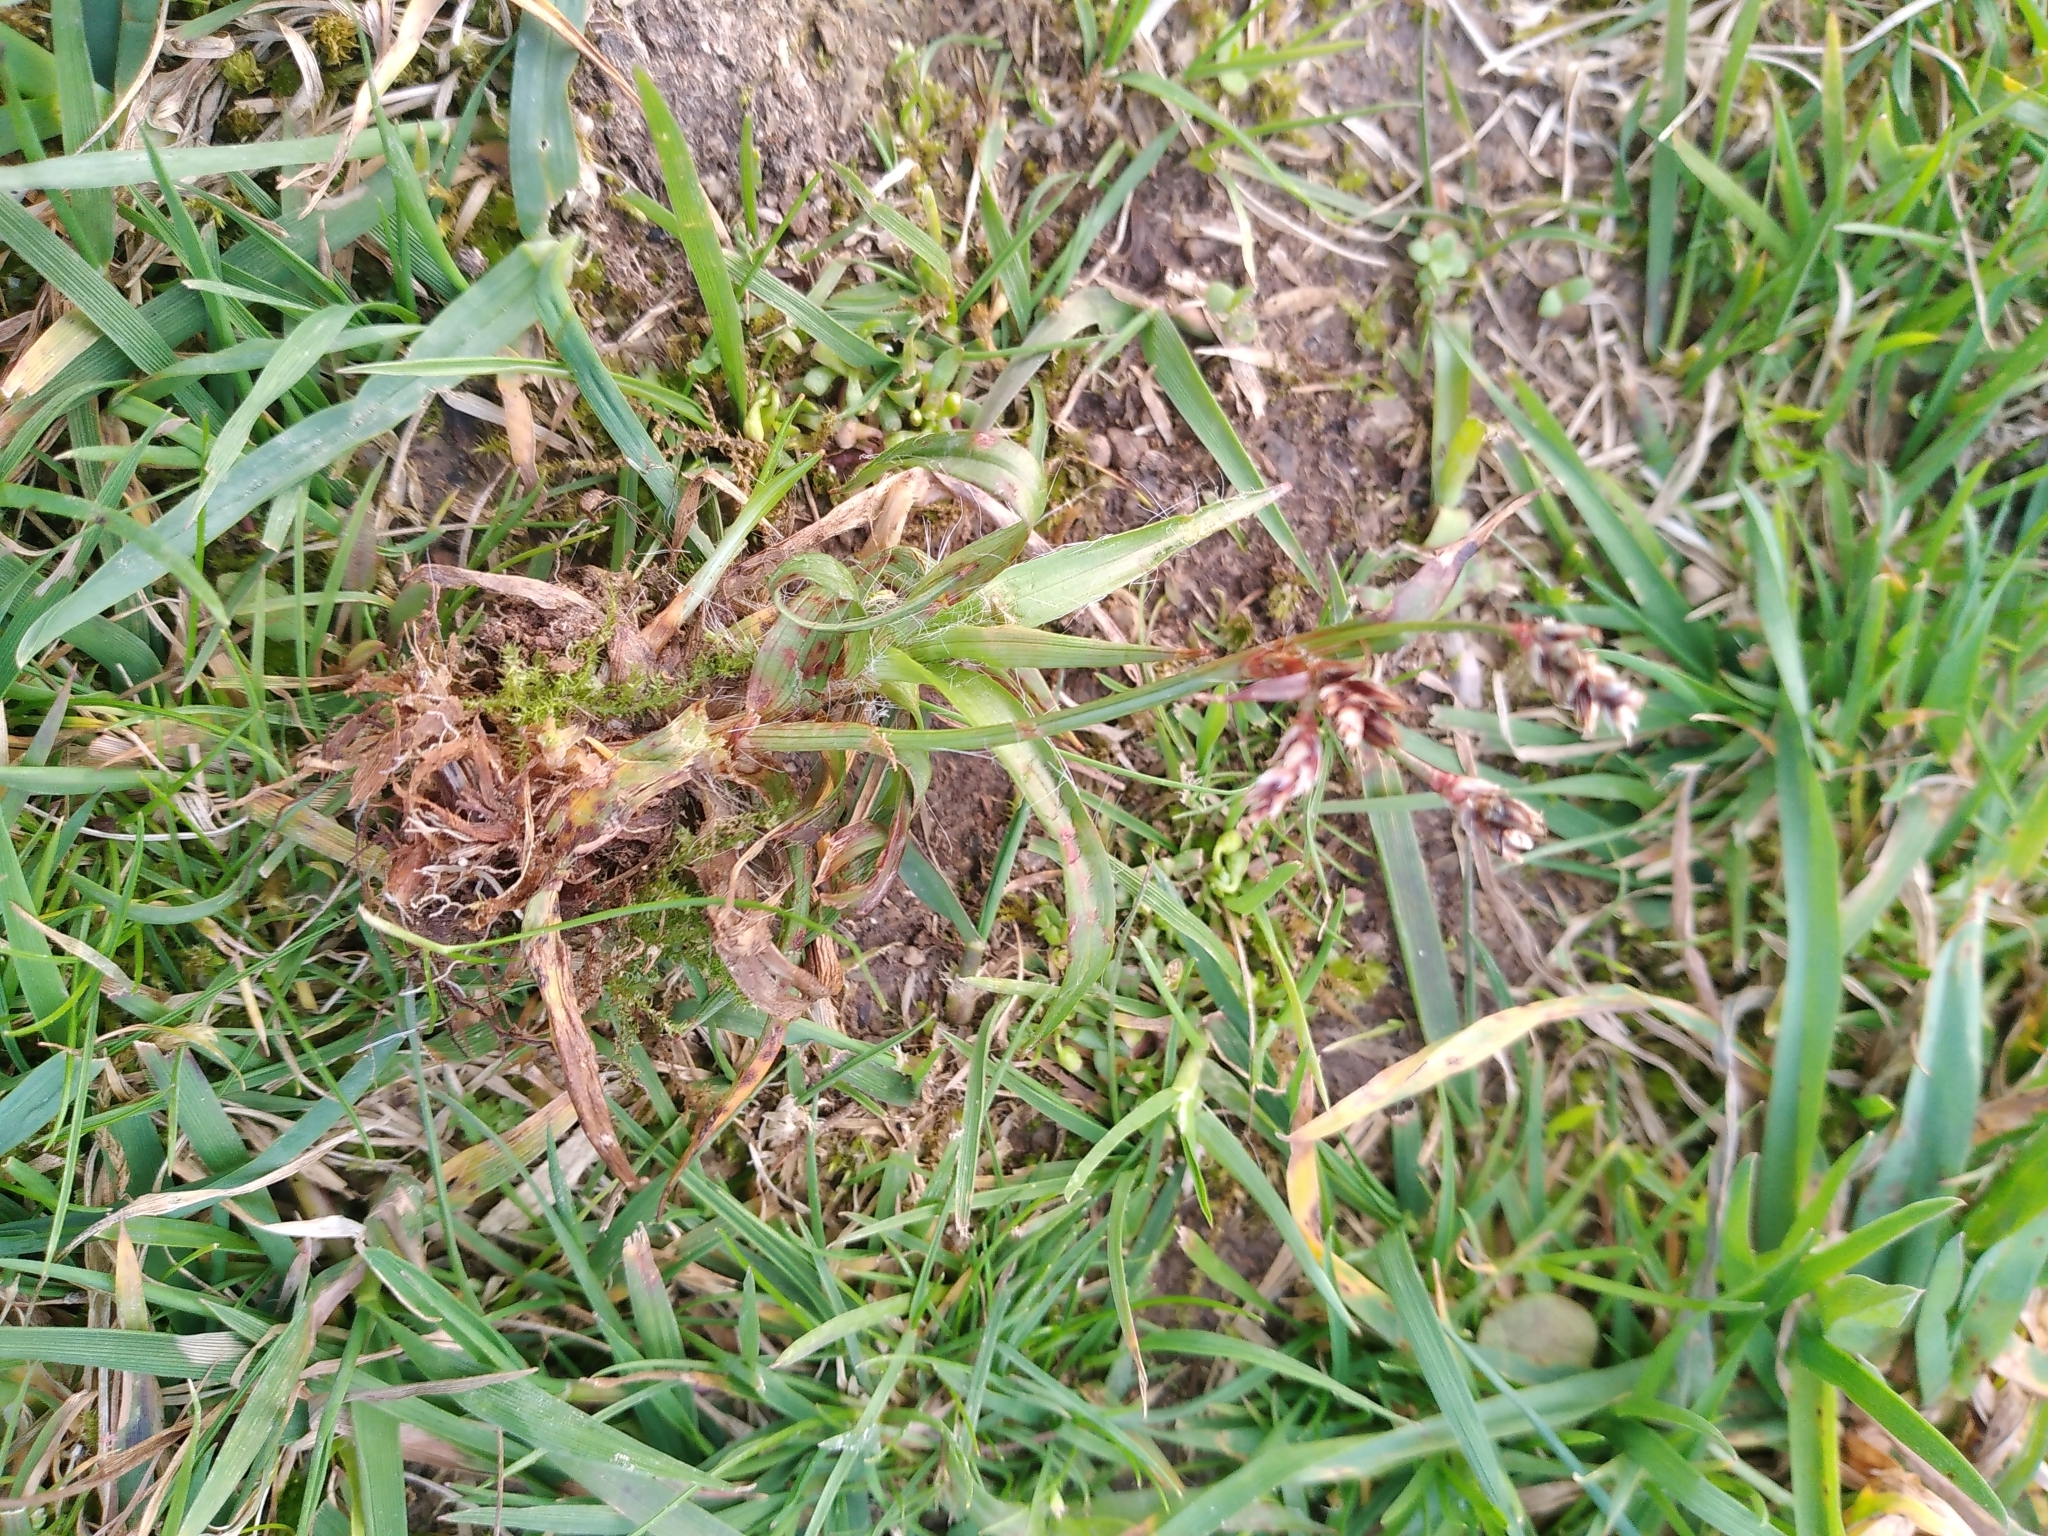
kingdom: Plantae
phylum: Tracheophyta
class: Liliopsida
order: Poales
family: Juncaceae
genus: Luzula
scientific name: Luzula campestris
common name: Field wood-rush
